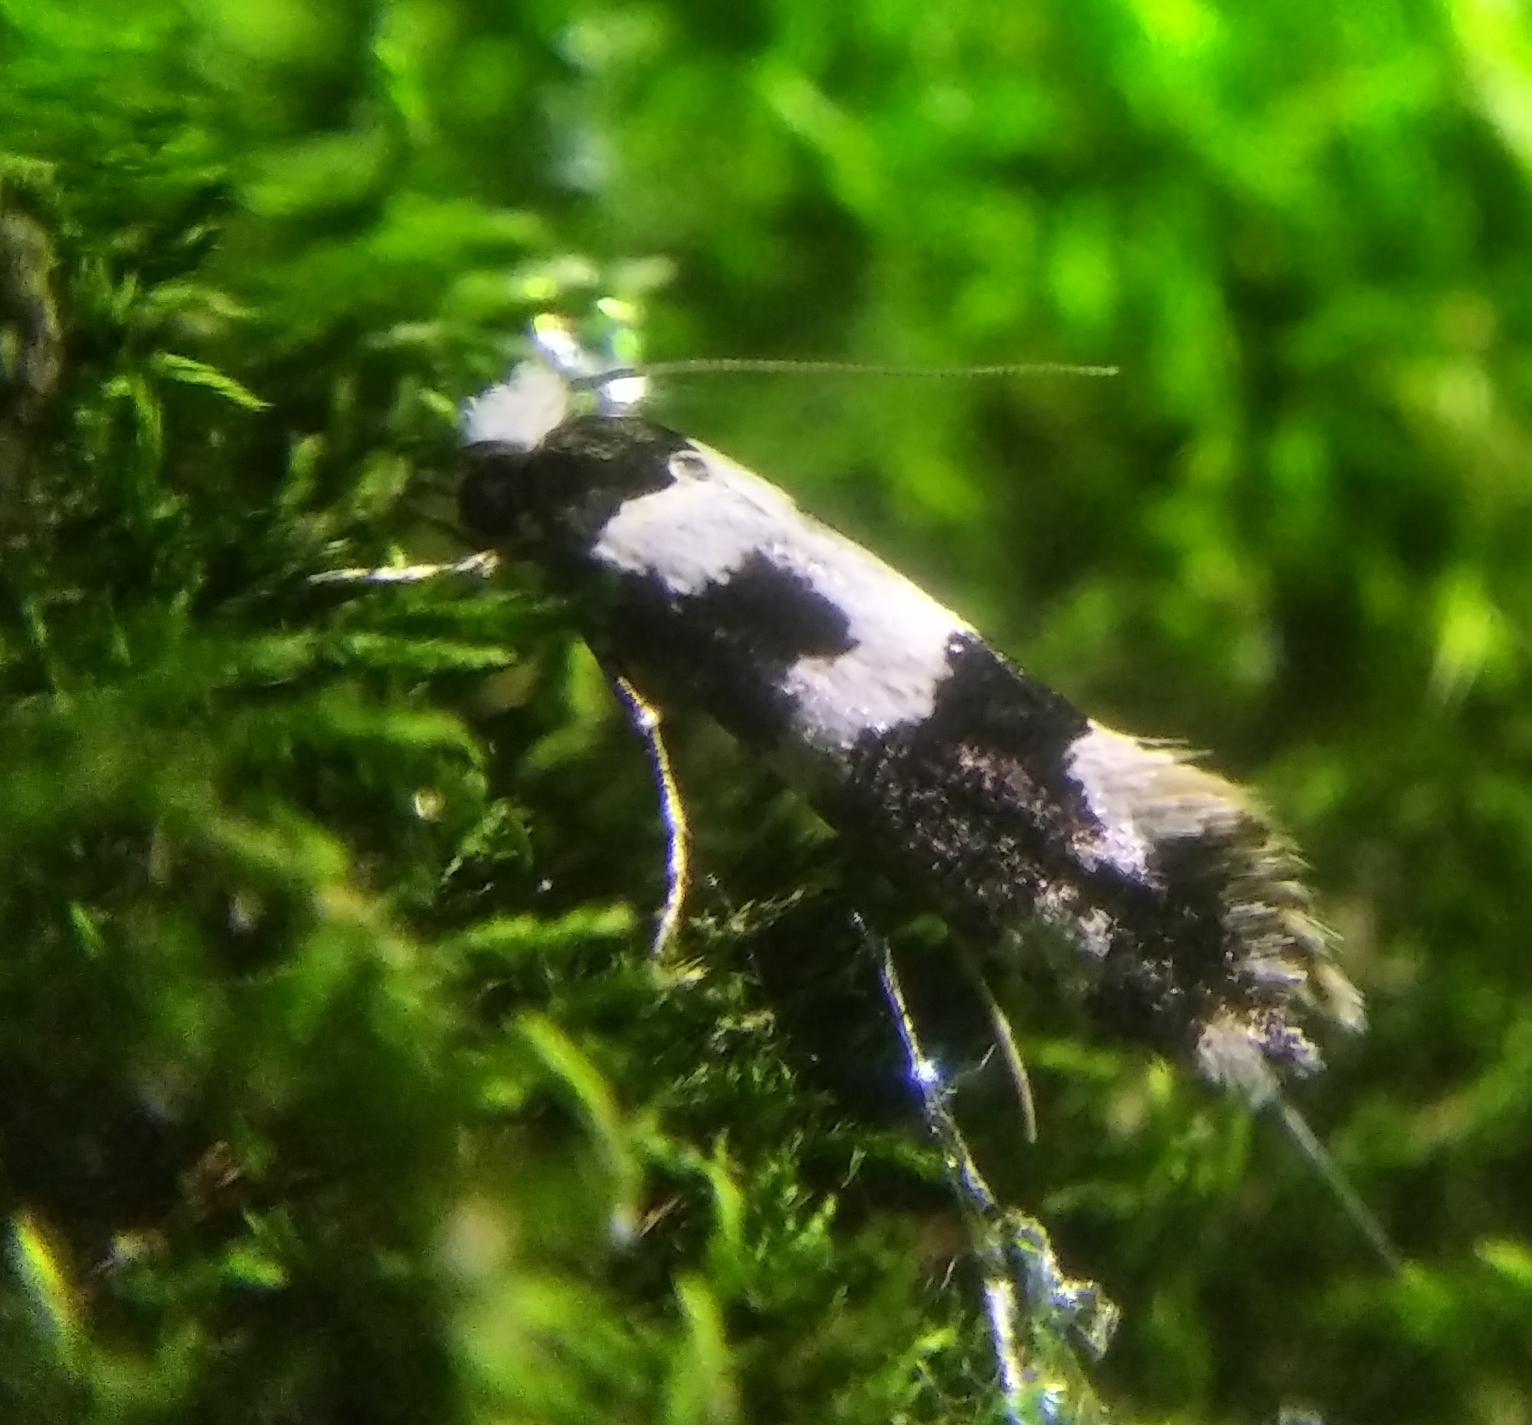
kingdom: Animalia
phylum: Arthropoda
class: Insecta
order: Lepidoptera
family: Tineidae
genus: Neurothaumasia
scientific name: Neurothaumasia ankerella
